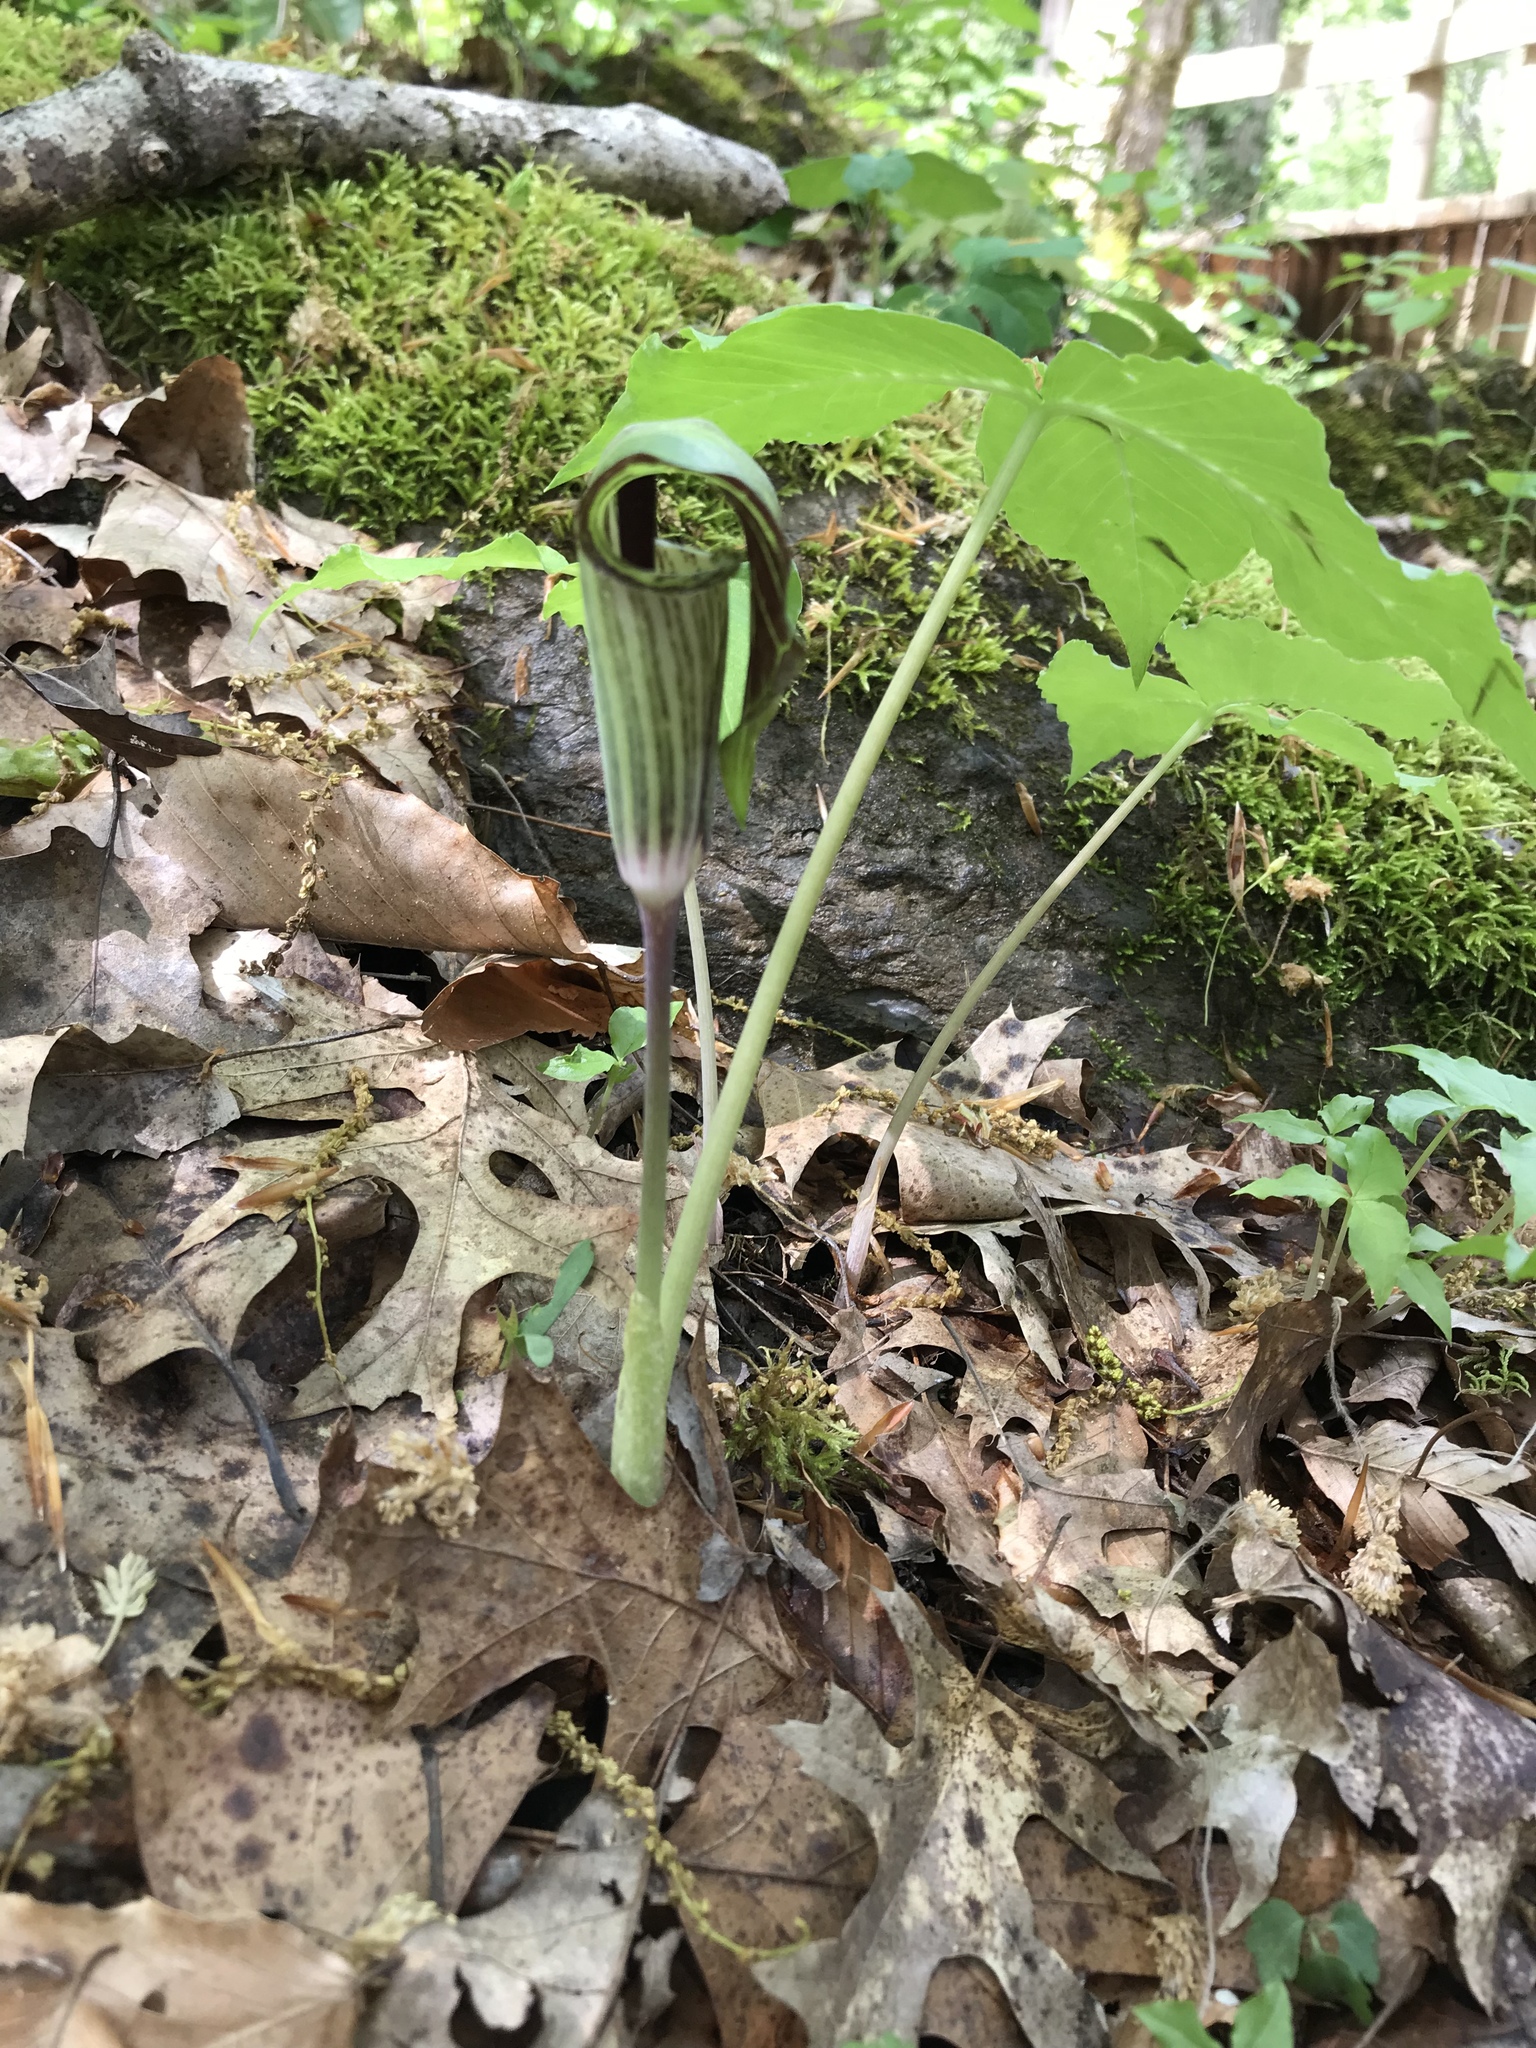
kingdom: Plantae
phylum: Tracheophyta
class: Liliopsida
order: Alismatales
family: Araceae
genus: Arisaema
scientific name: Arisaema triphyllum
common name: Jack-in-the-pulpit
